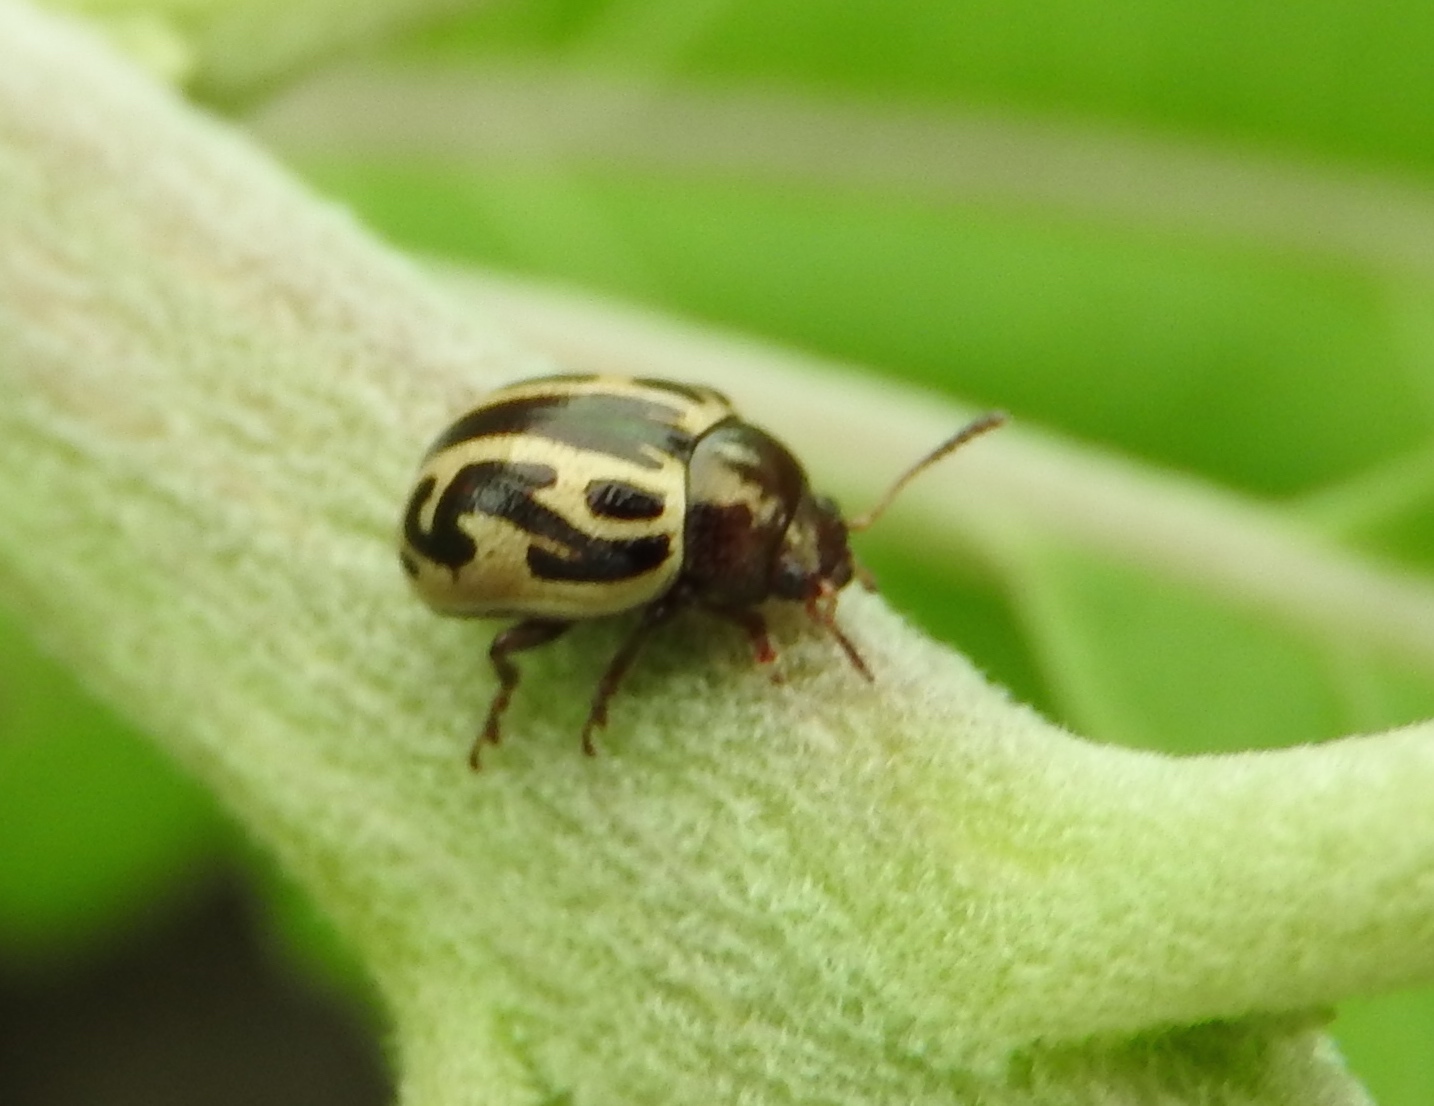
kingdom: Animalia
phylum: Arthropoda
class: Insecta
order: Coleoptera
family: Chrysomelidae
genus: Calligrapha
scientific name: Calligrapha
